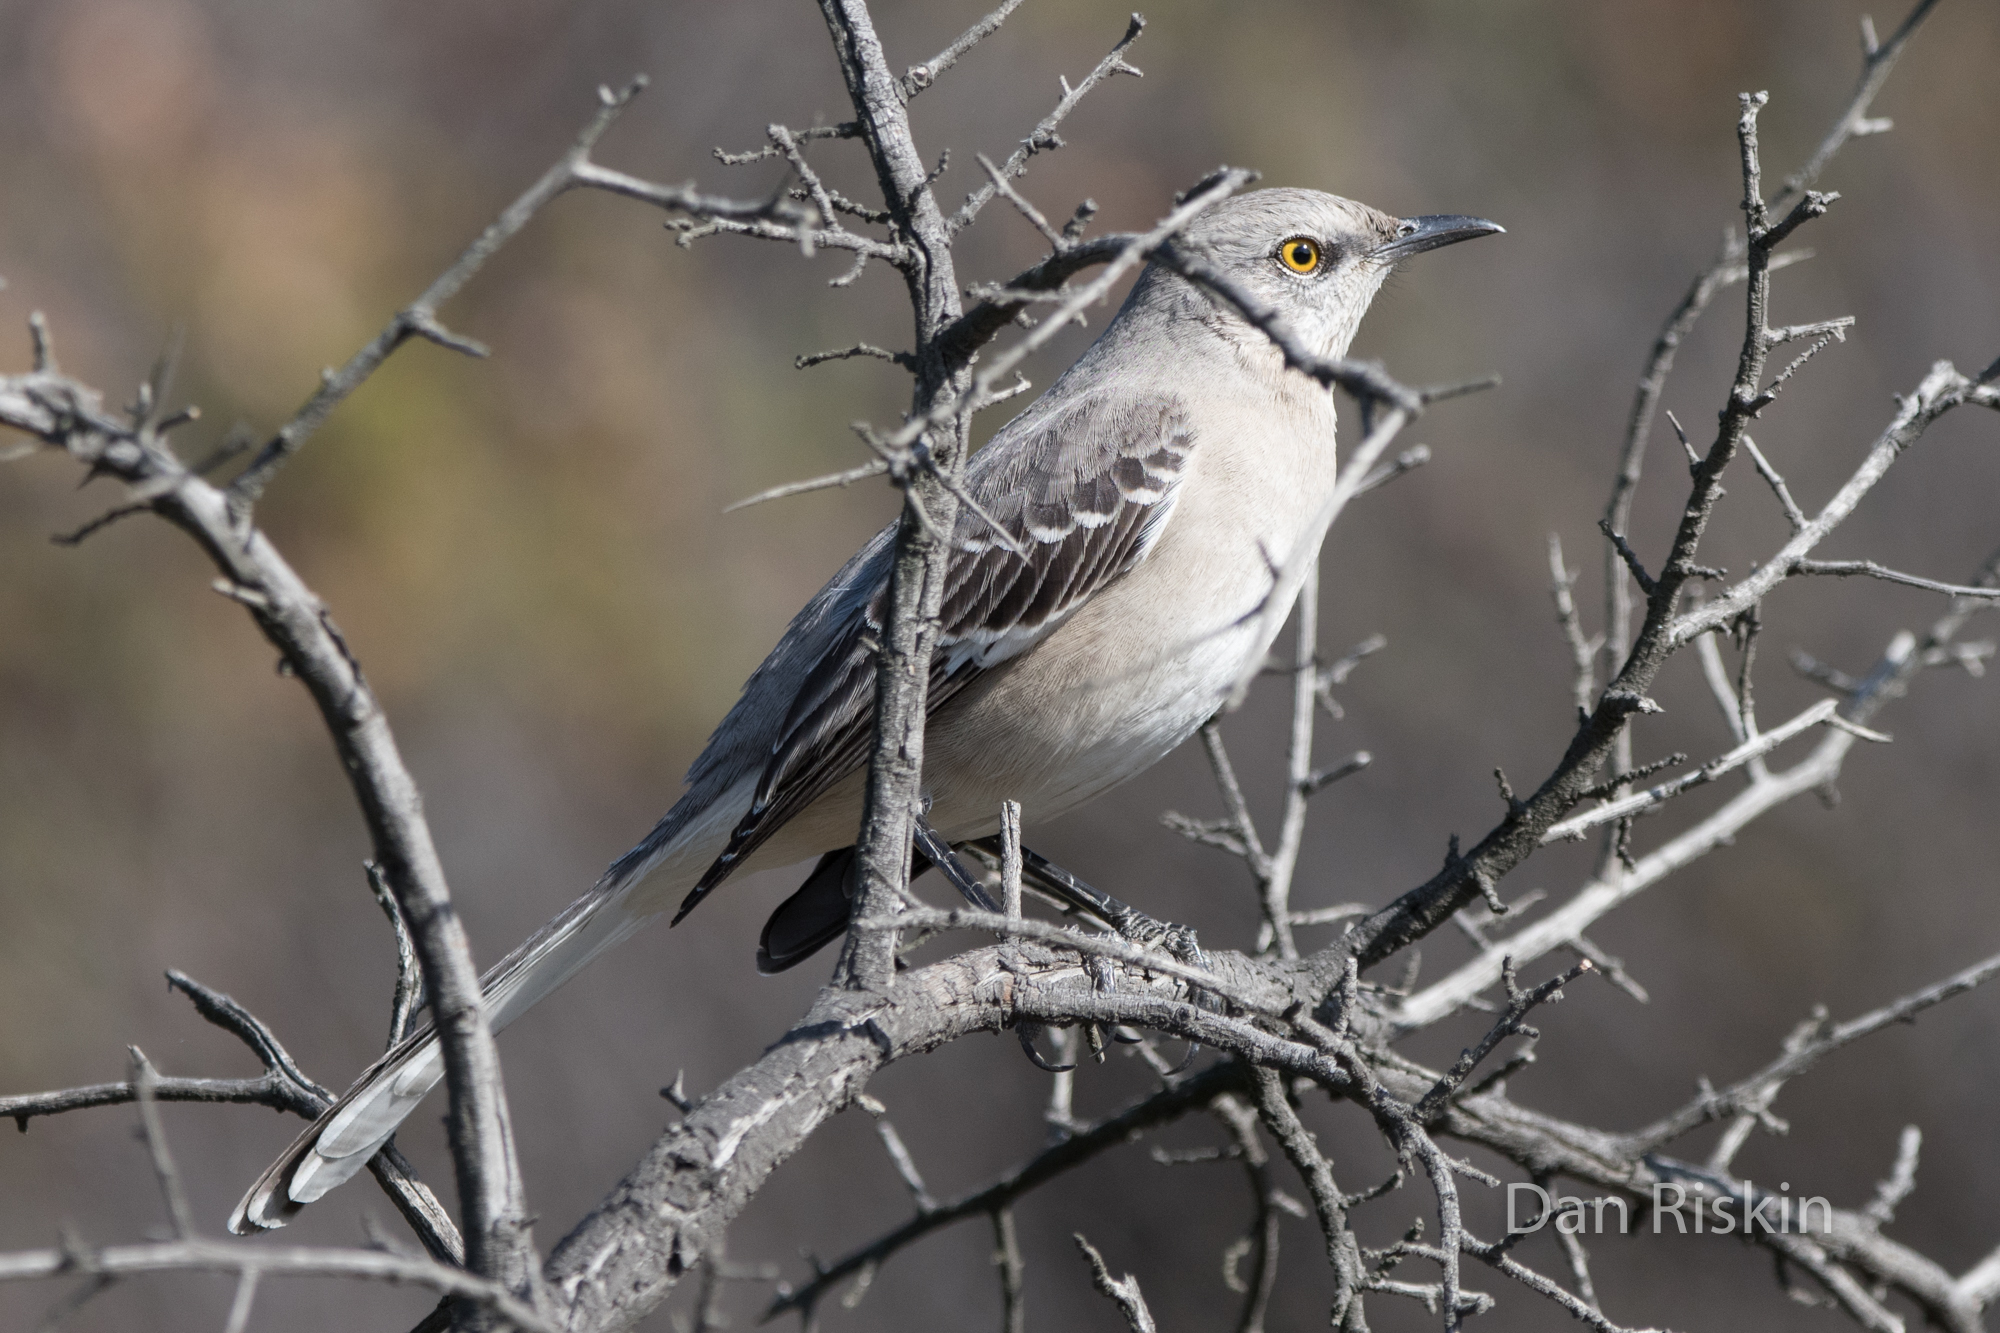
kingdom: Animalia
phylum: Chordata
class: Aves
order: Passeriformes
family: Mimidae
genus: Mimus
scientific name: Mimus polyglottos
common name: Northern mockingbird
